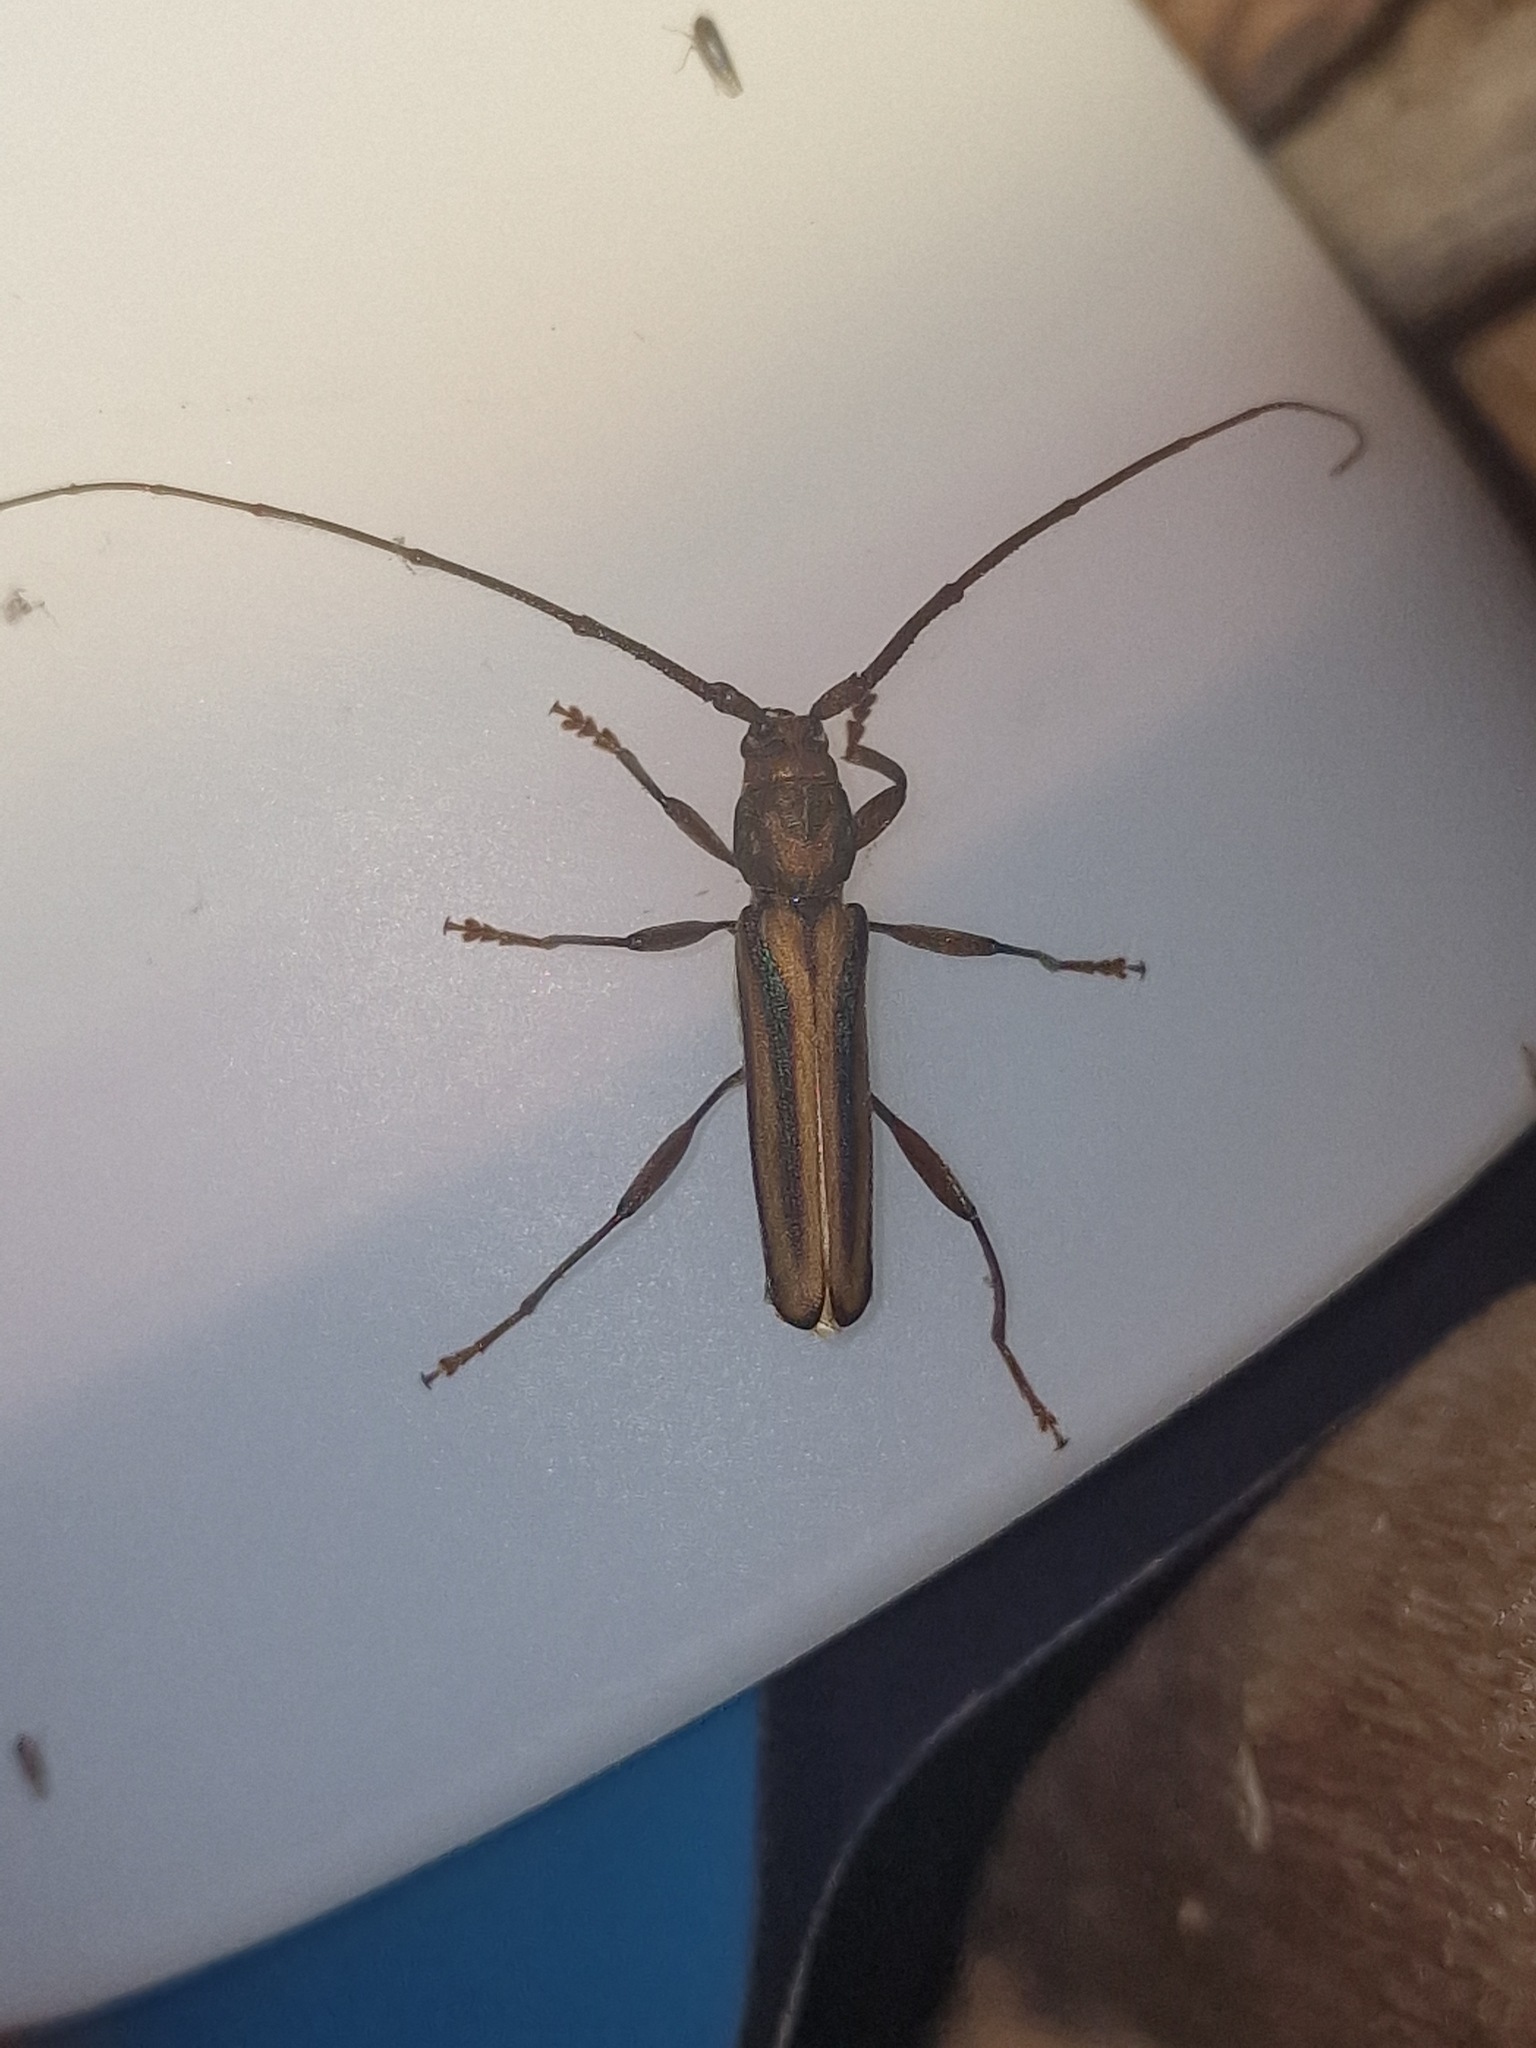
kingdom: Animalia
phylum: Arthropoda
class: Insecta
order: Coleoptera
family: Cerambycidae
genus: Xystrocera
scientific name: Xystrocera dispar
